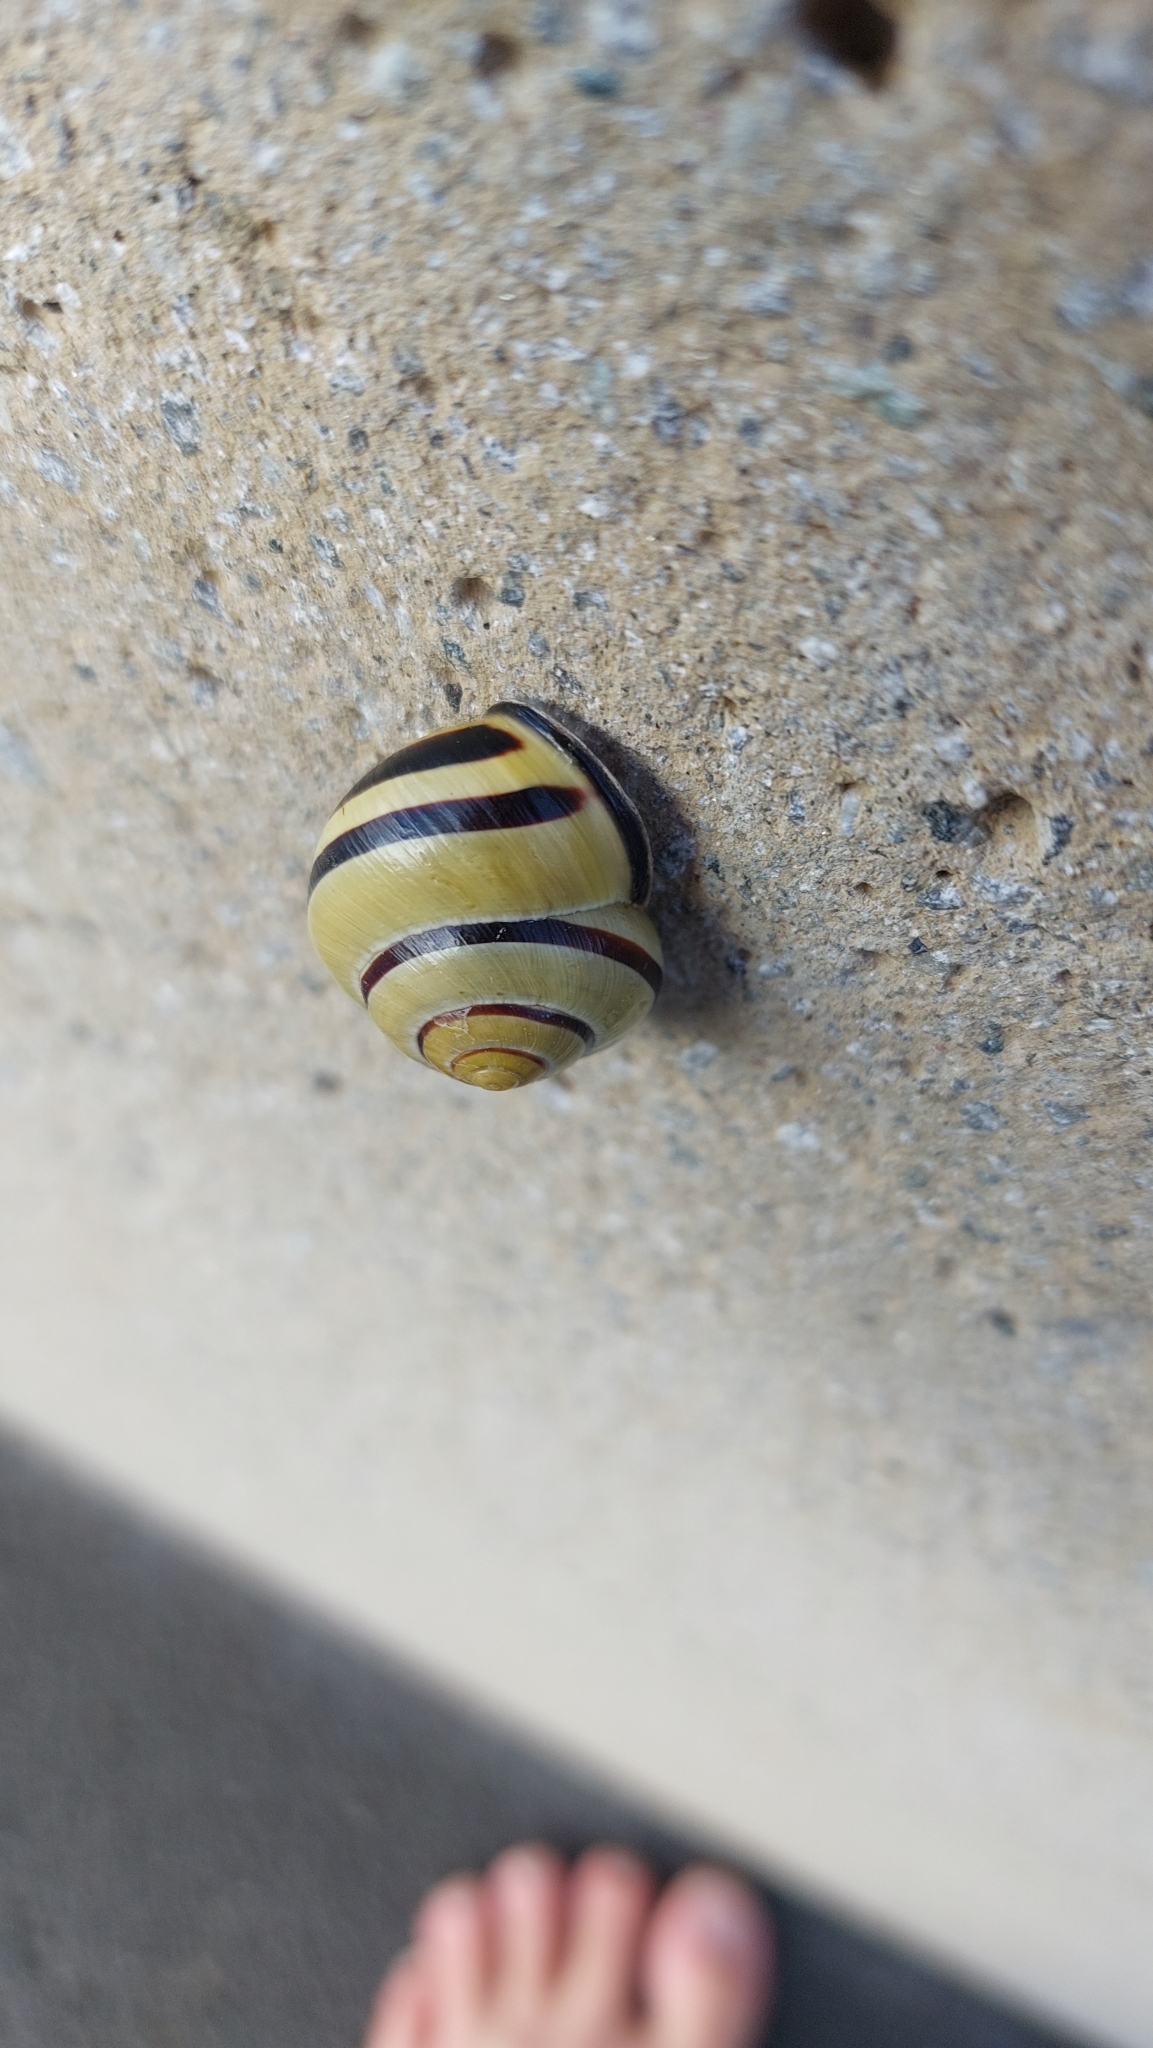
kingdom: Animalia
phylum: Mollusca
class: Gastropoda
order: Stylommatophora
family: Helicidae
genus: Cepaea
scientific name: Cepaea nemoralis
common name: Grovesnail
